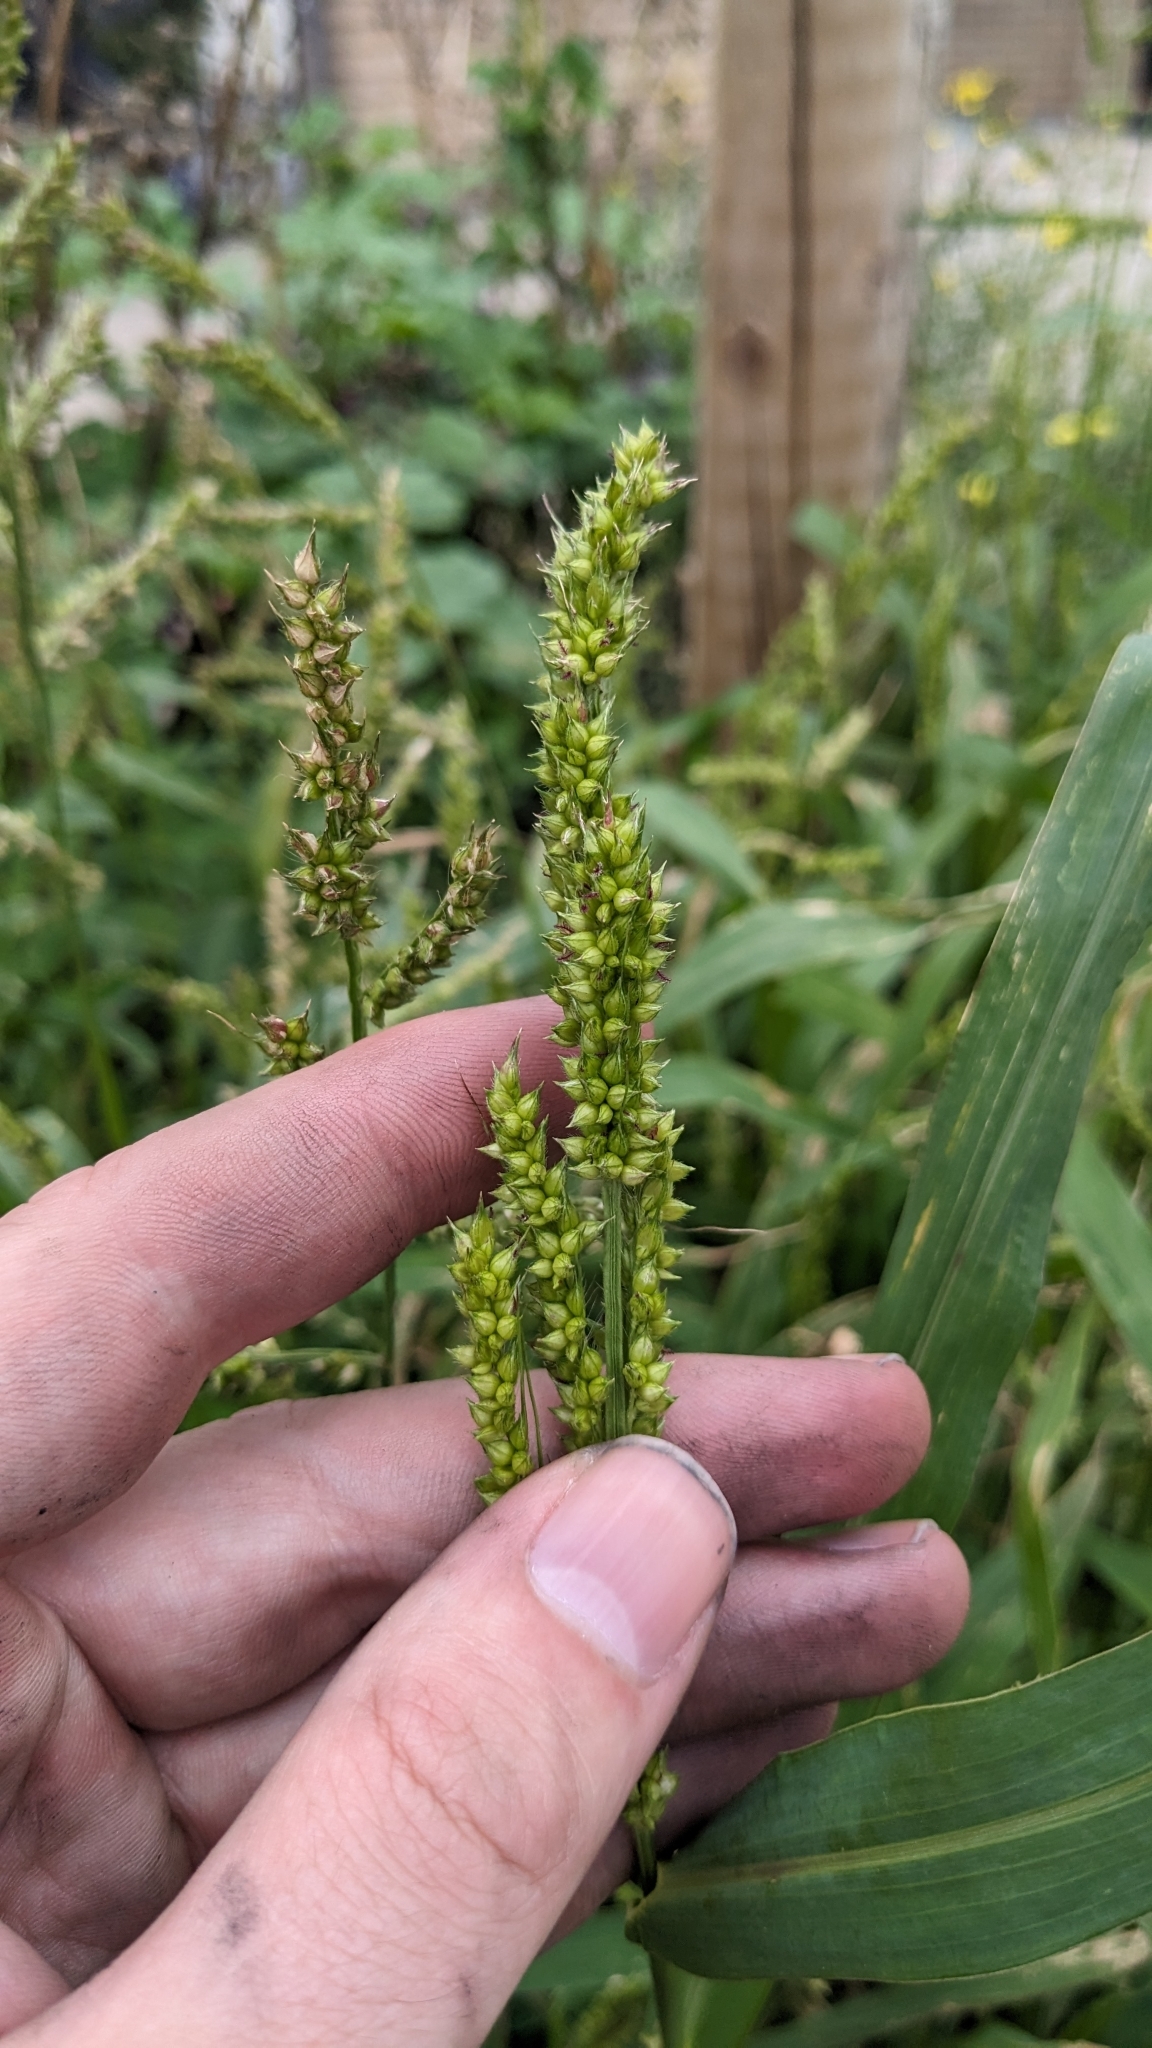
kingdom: Plantae
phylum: Tracheophyta
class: Liliopsida
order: Poales
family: Poaceae
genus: Echinochloa
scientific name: Echinochloa crus-galli
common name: Cockspur
